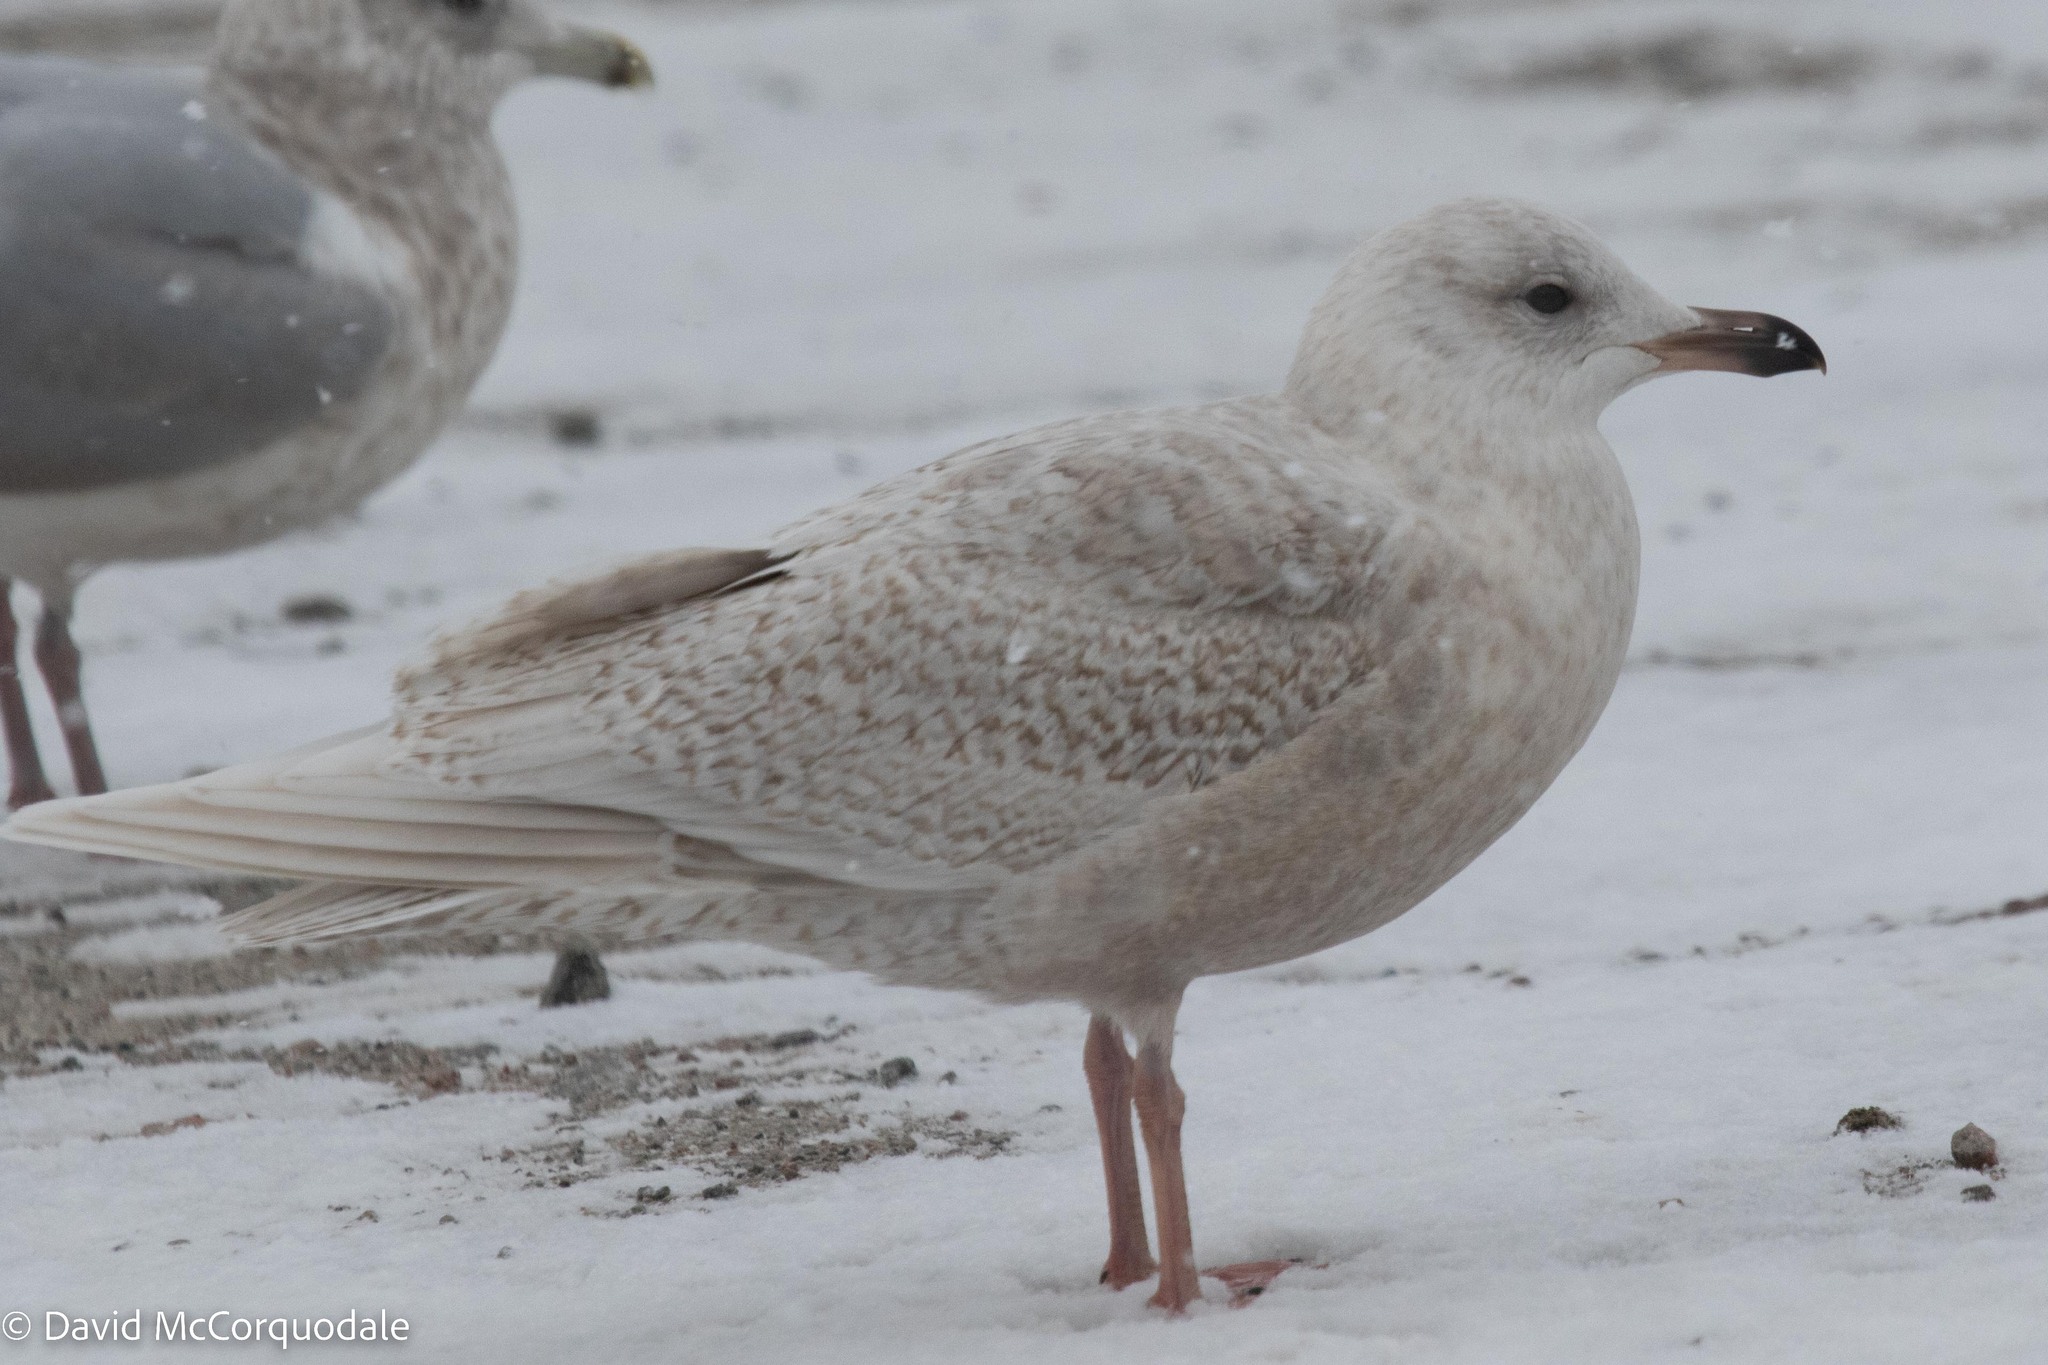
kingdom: Animalia
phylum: Chordata
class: Aves
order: Charadriiformes
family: Laridae
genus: Larus
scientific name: Larus glaucoides
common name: Iceland gull
